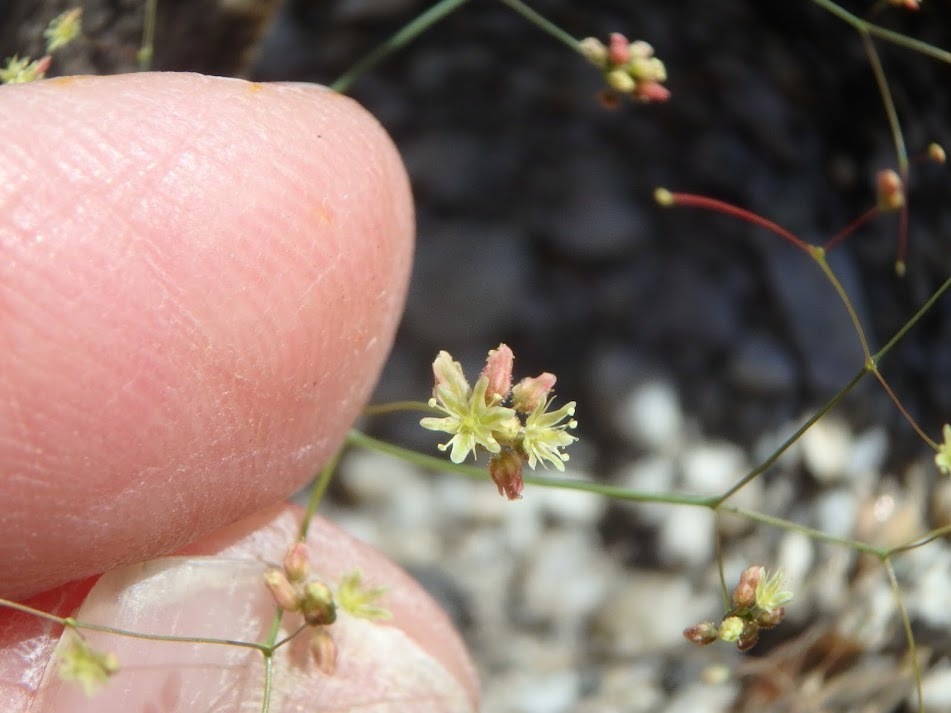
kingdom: Plantae
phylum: Tracheophyta
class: Magnoliopsida
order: Caryophyllales
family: Polygonaceae
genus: Eriogonum
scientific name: Eriogonum thomasii
